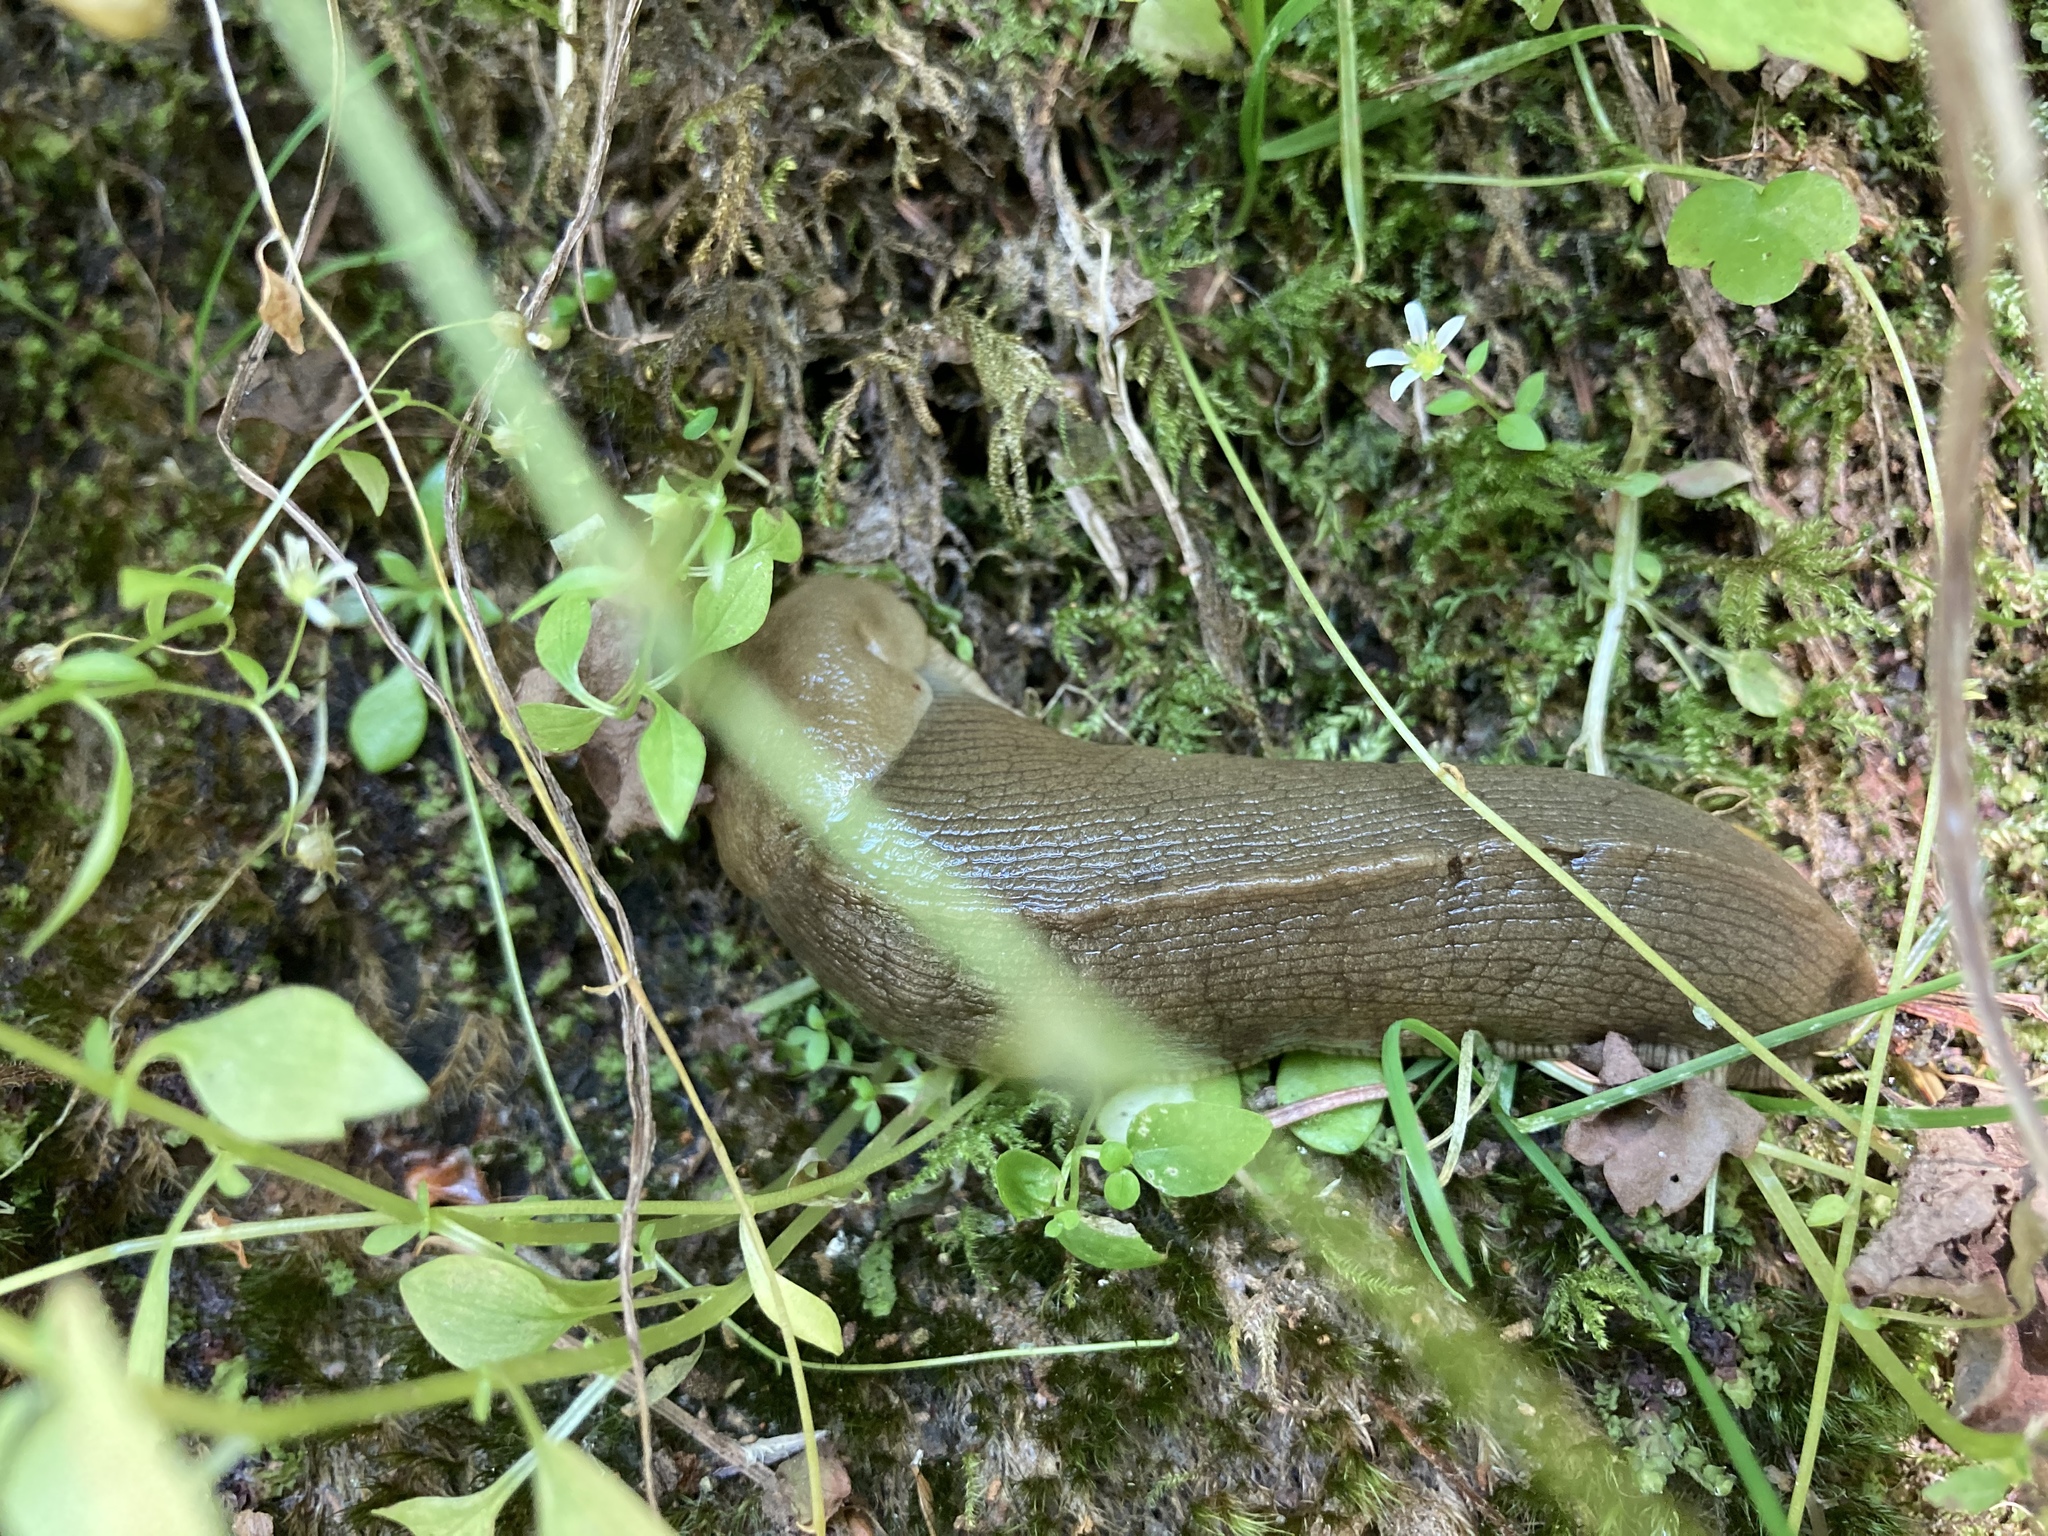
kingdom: Animalia
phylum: Mollusca
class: Gastropoda
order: Stylommatophora
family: Ariolimacidae
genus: Ariolimax
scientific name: Ariolimax columbianus
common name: Pacific banana slug
